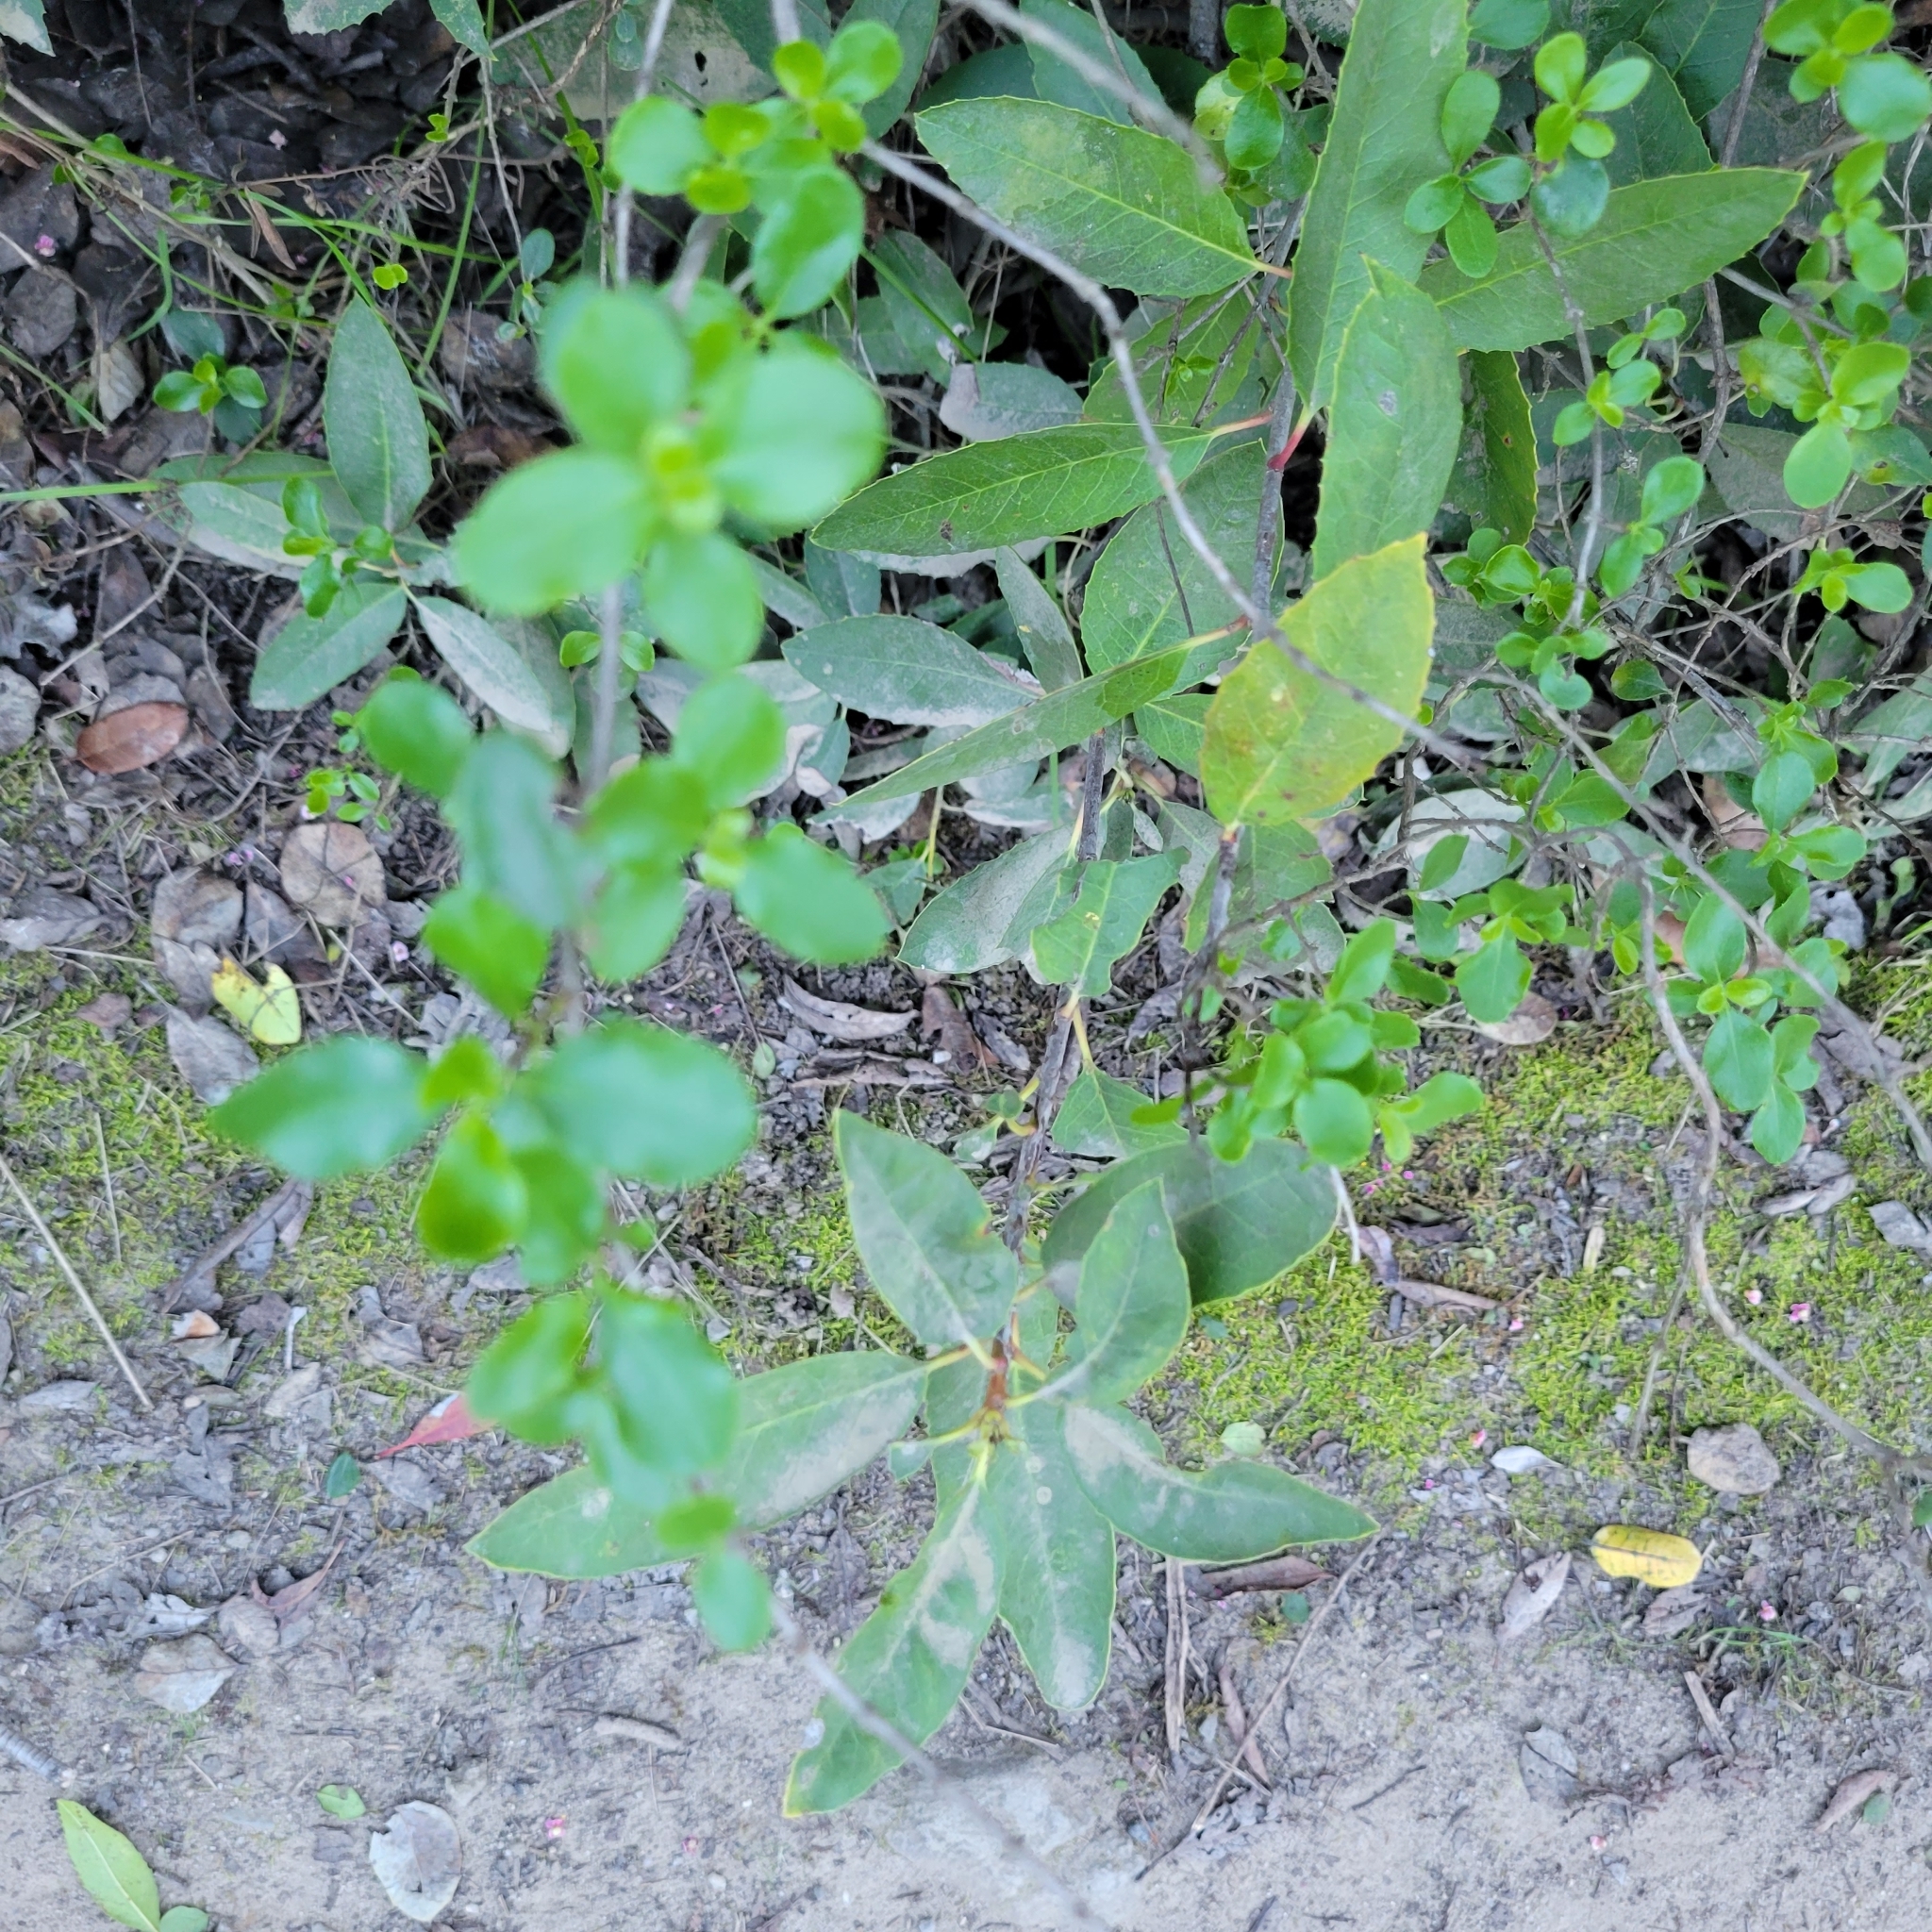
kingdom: Plantae
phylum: Tracheophyta
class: Magnoliopsida
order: Dipsacales
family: Caprifoliaceae
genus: Lonicera
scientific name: Lonicera subspicata
